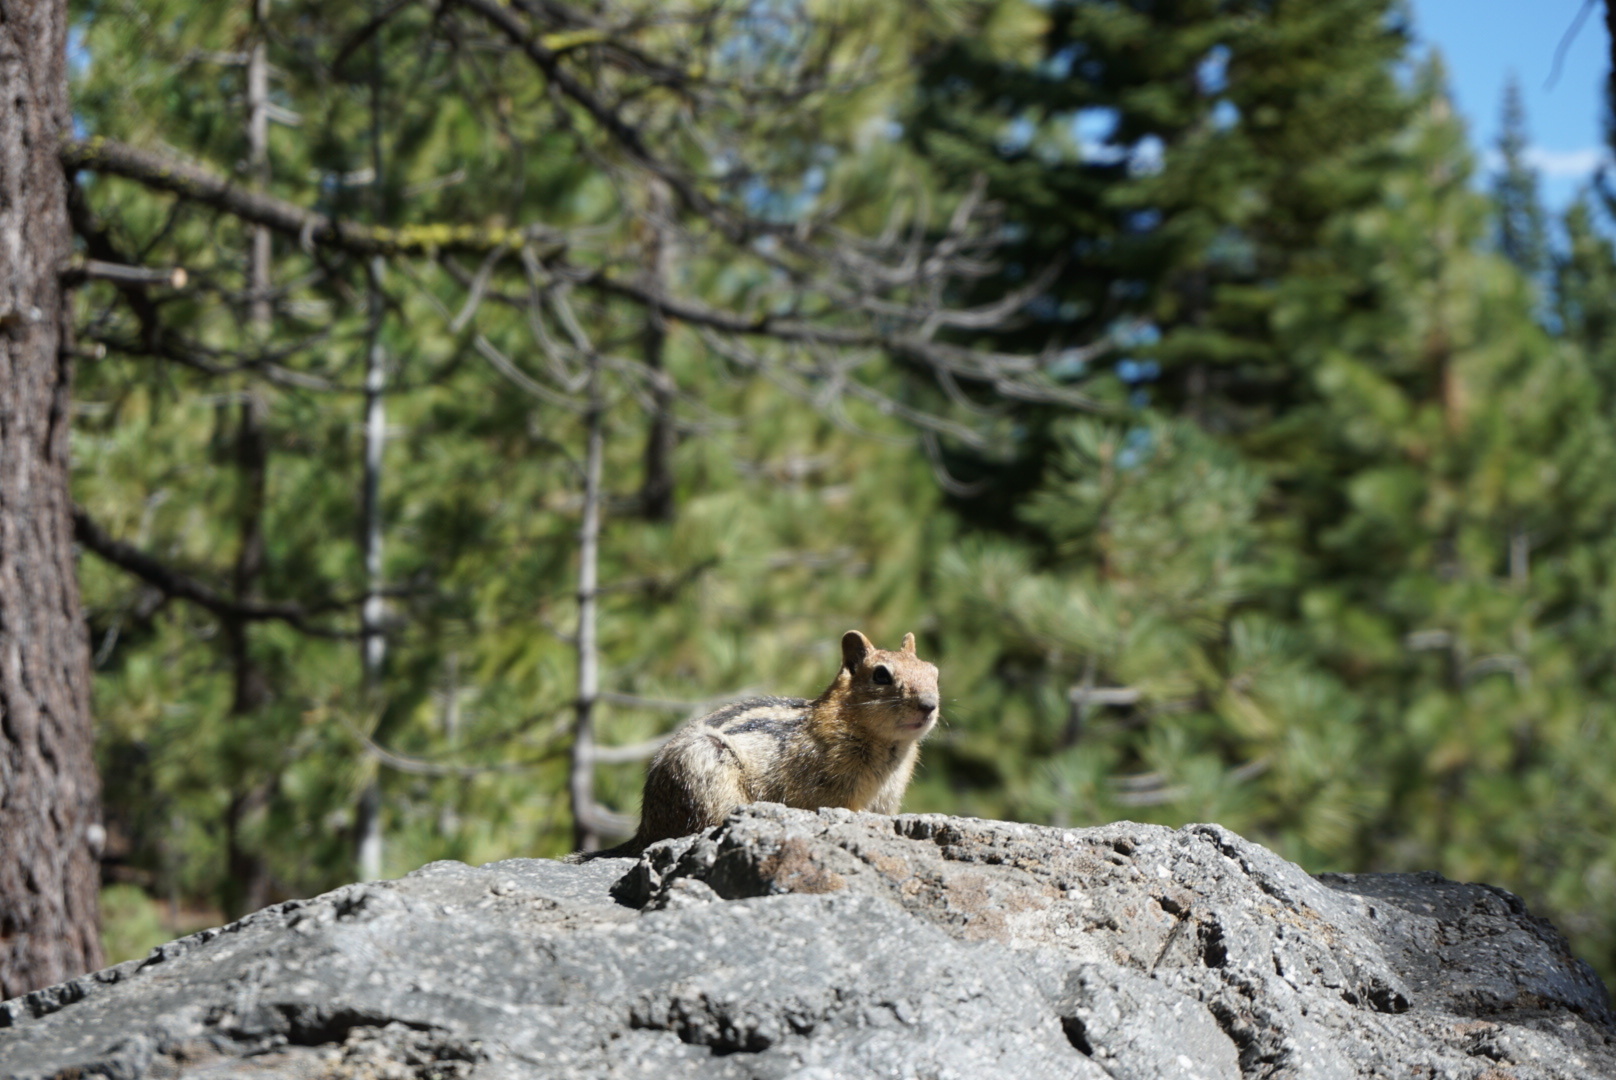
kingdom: Animalia
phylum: Chordata
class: Mammalia
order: Rodentia
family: Sciuridae
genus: Callospermophilus
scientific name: Callospermophilus lateralis
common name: Golden-mantled ground squirrel
